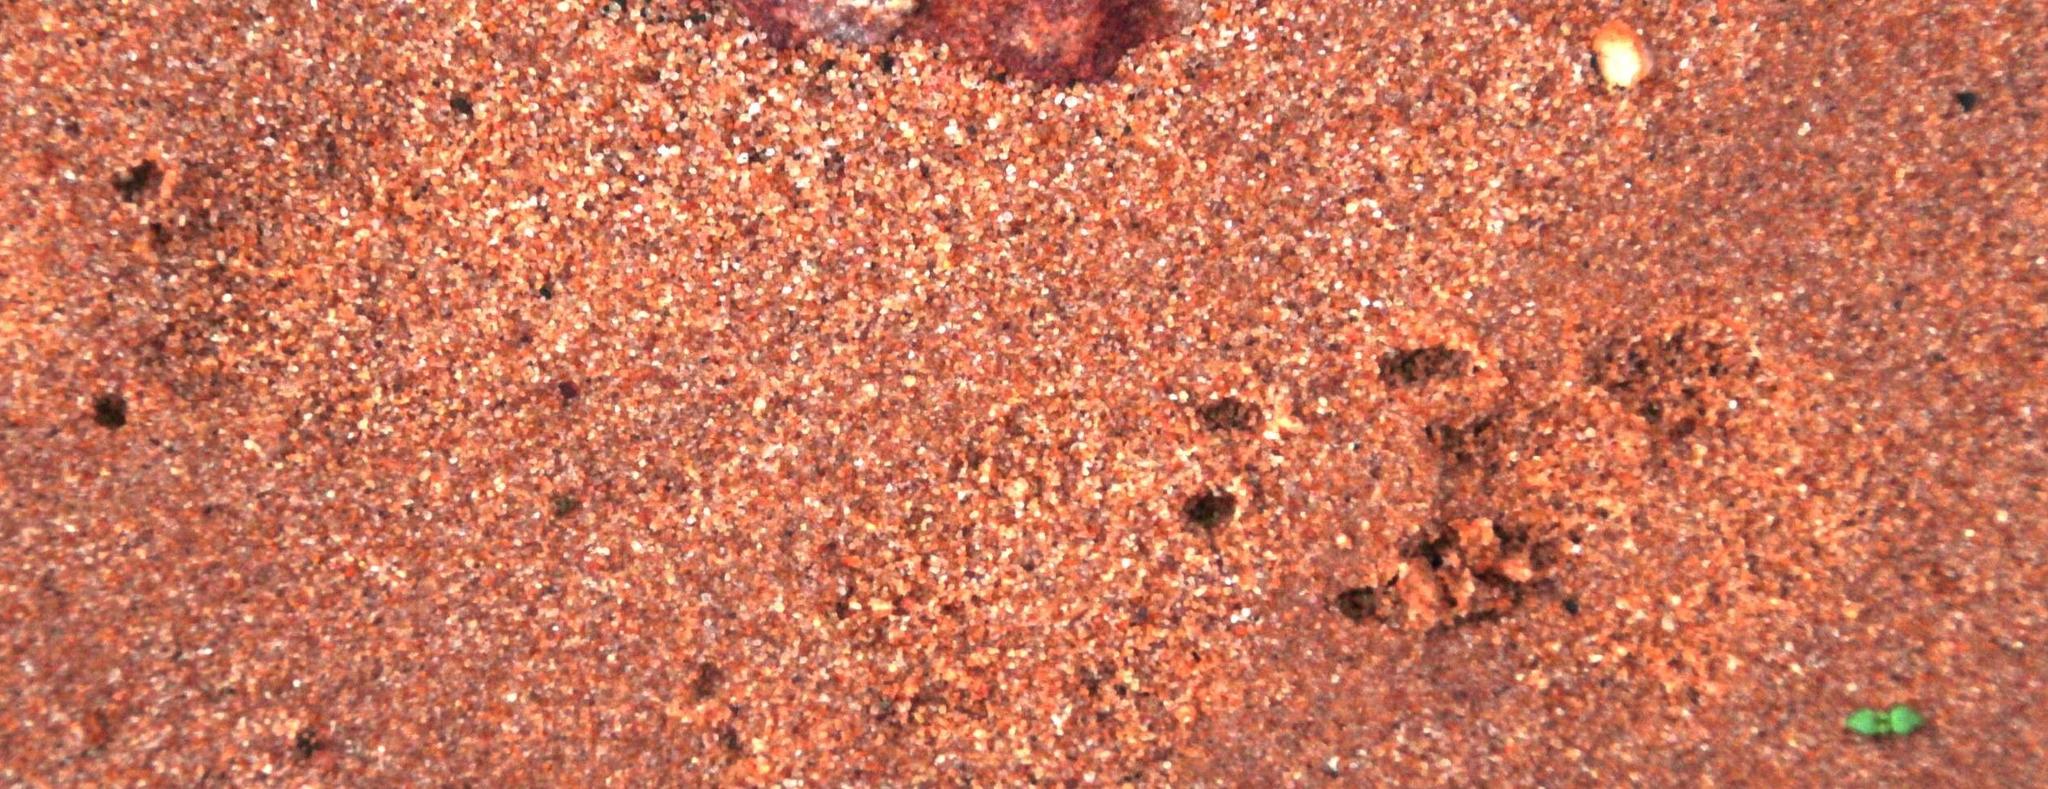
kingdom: Animalia
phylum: Chordata
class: Mammalia
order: Carnivora
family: Hyaenidae
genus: Proteles
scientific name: Proteles cristata
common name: Aardwolf
